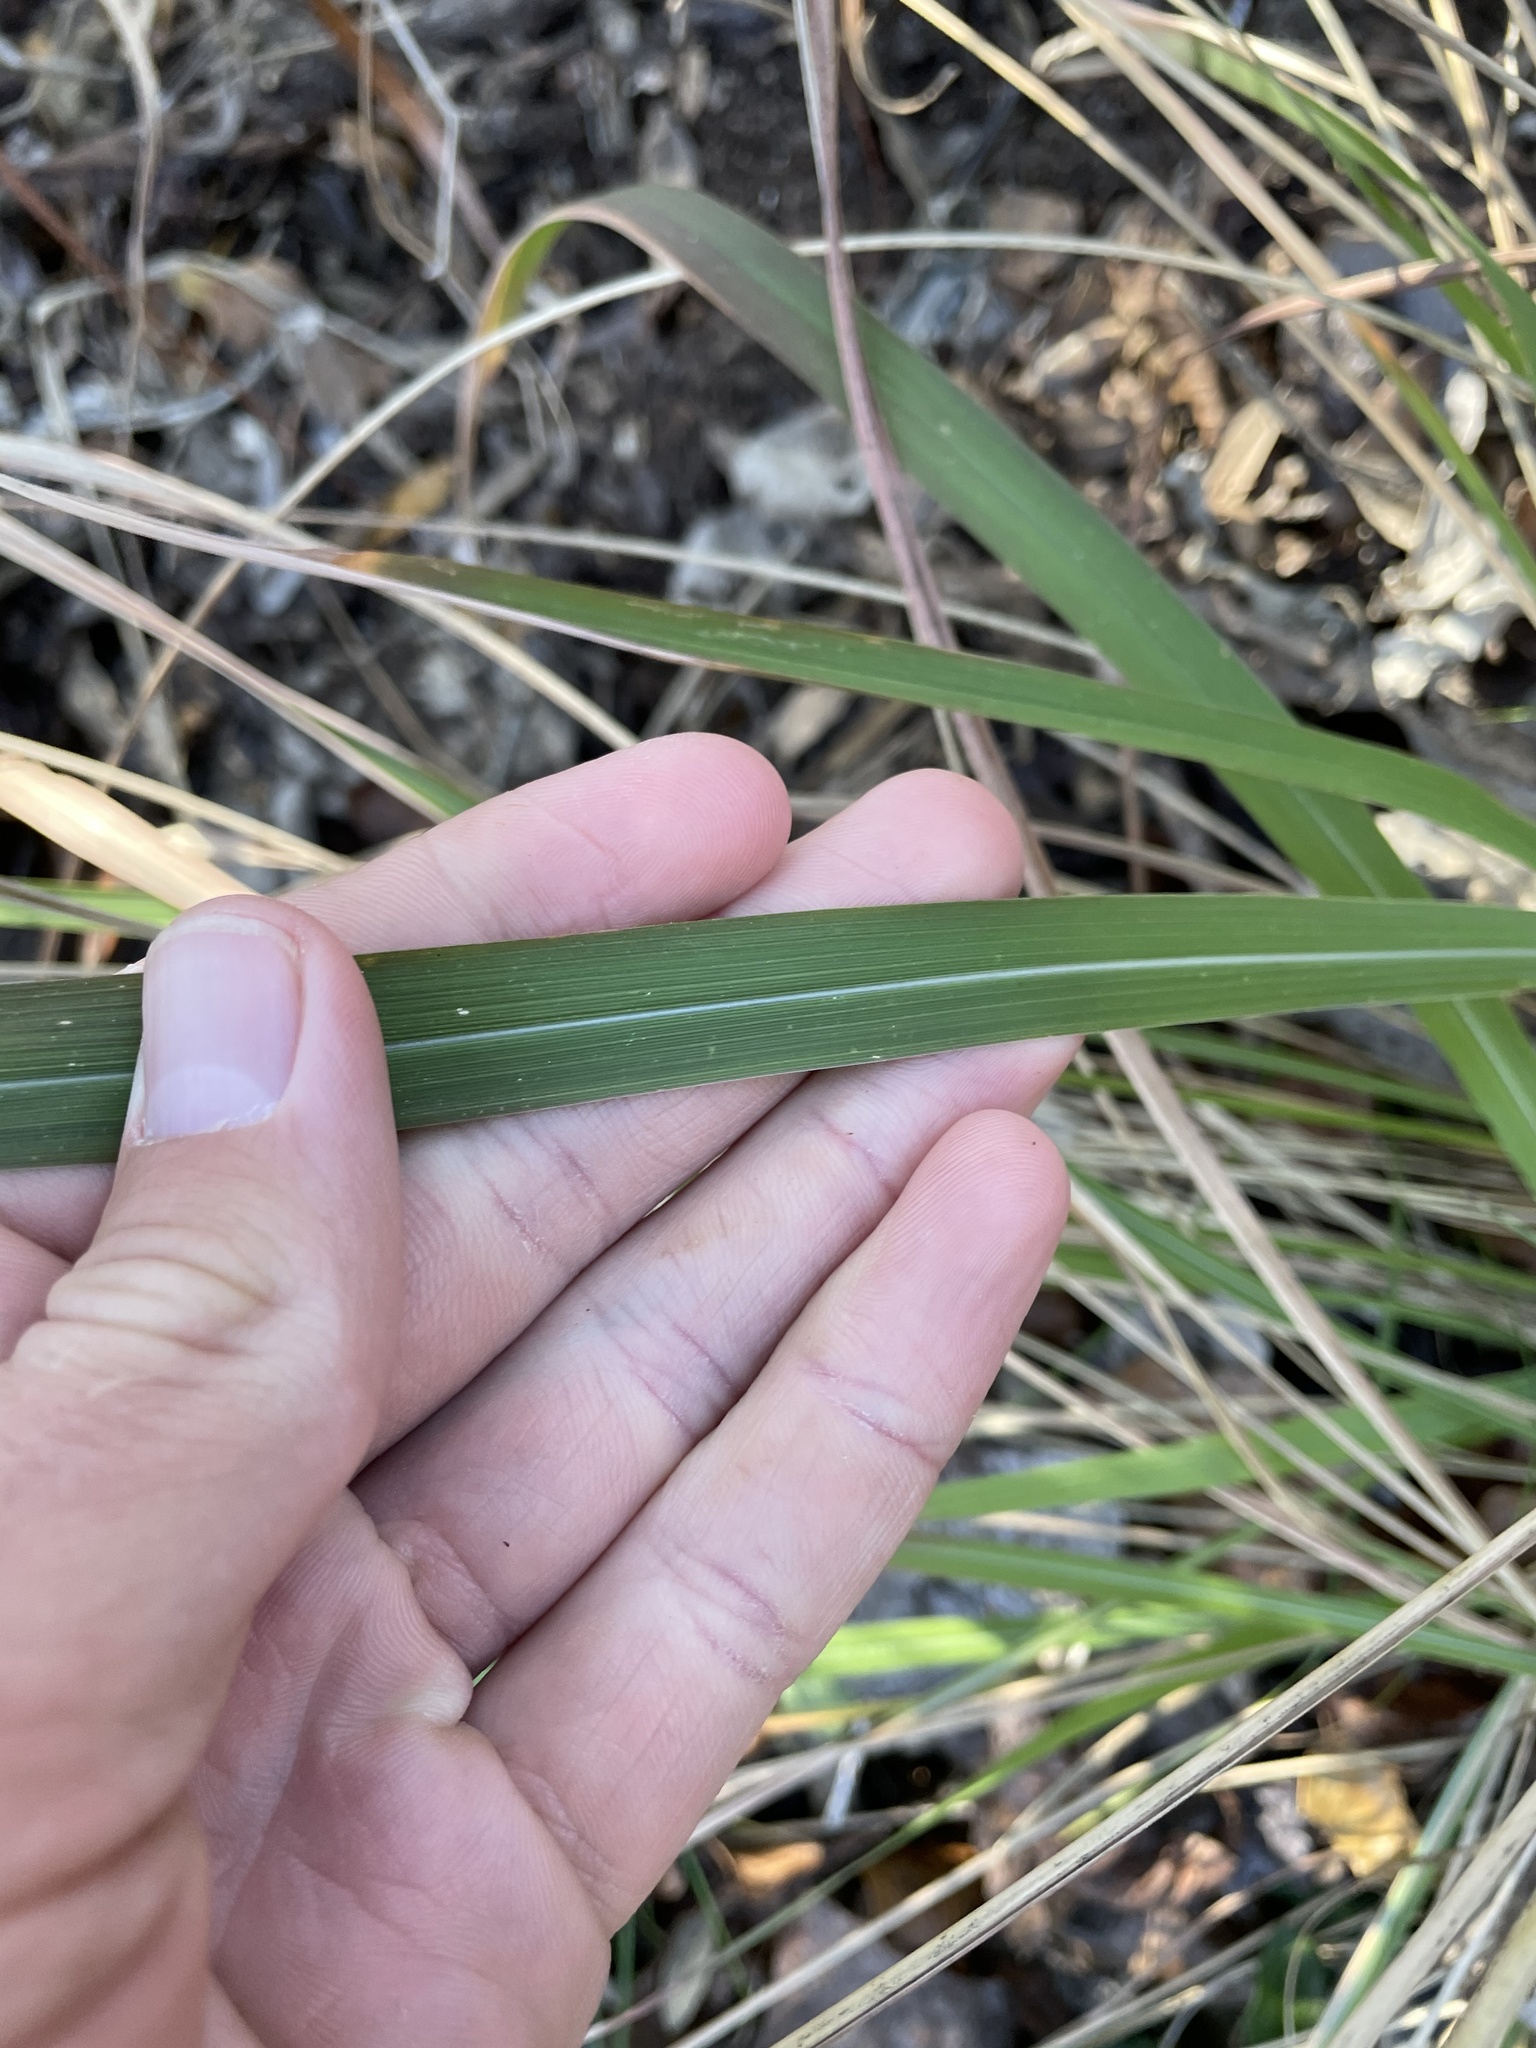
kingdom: Plantae
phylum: Tracheophyta
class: Liliopsida
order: Poales
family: Poaceae
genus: Tripsacum
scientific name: Tripsacum dactyloides
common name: Buffalo-grass
